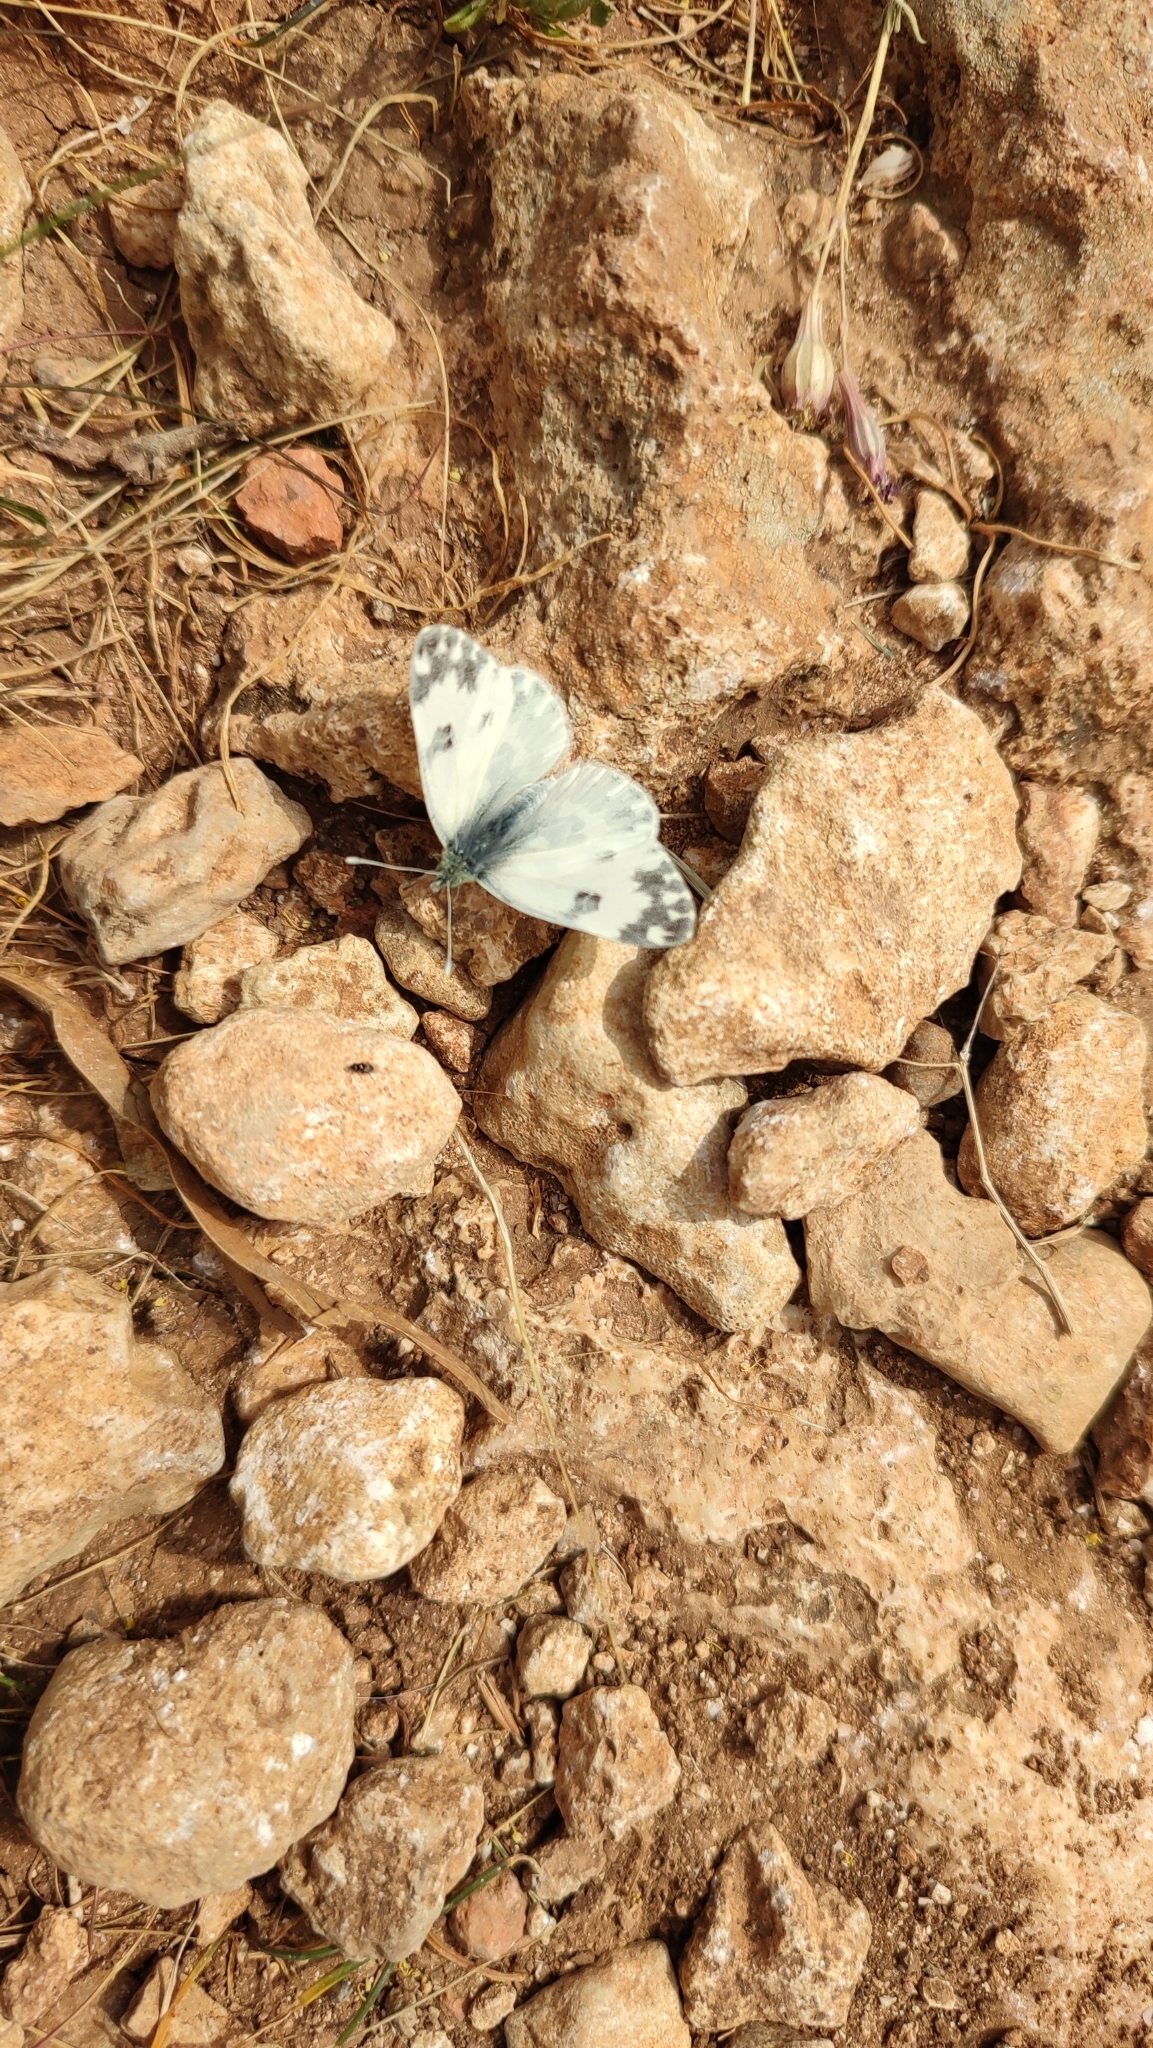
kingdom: Animalia
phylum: Arthropoda
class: Insecta
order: Lepidoptera
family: Pieridae
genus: Pontia
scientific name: Pontia edusa
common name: Eastern bath white
